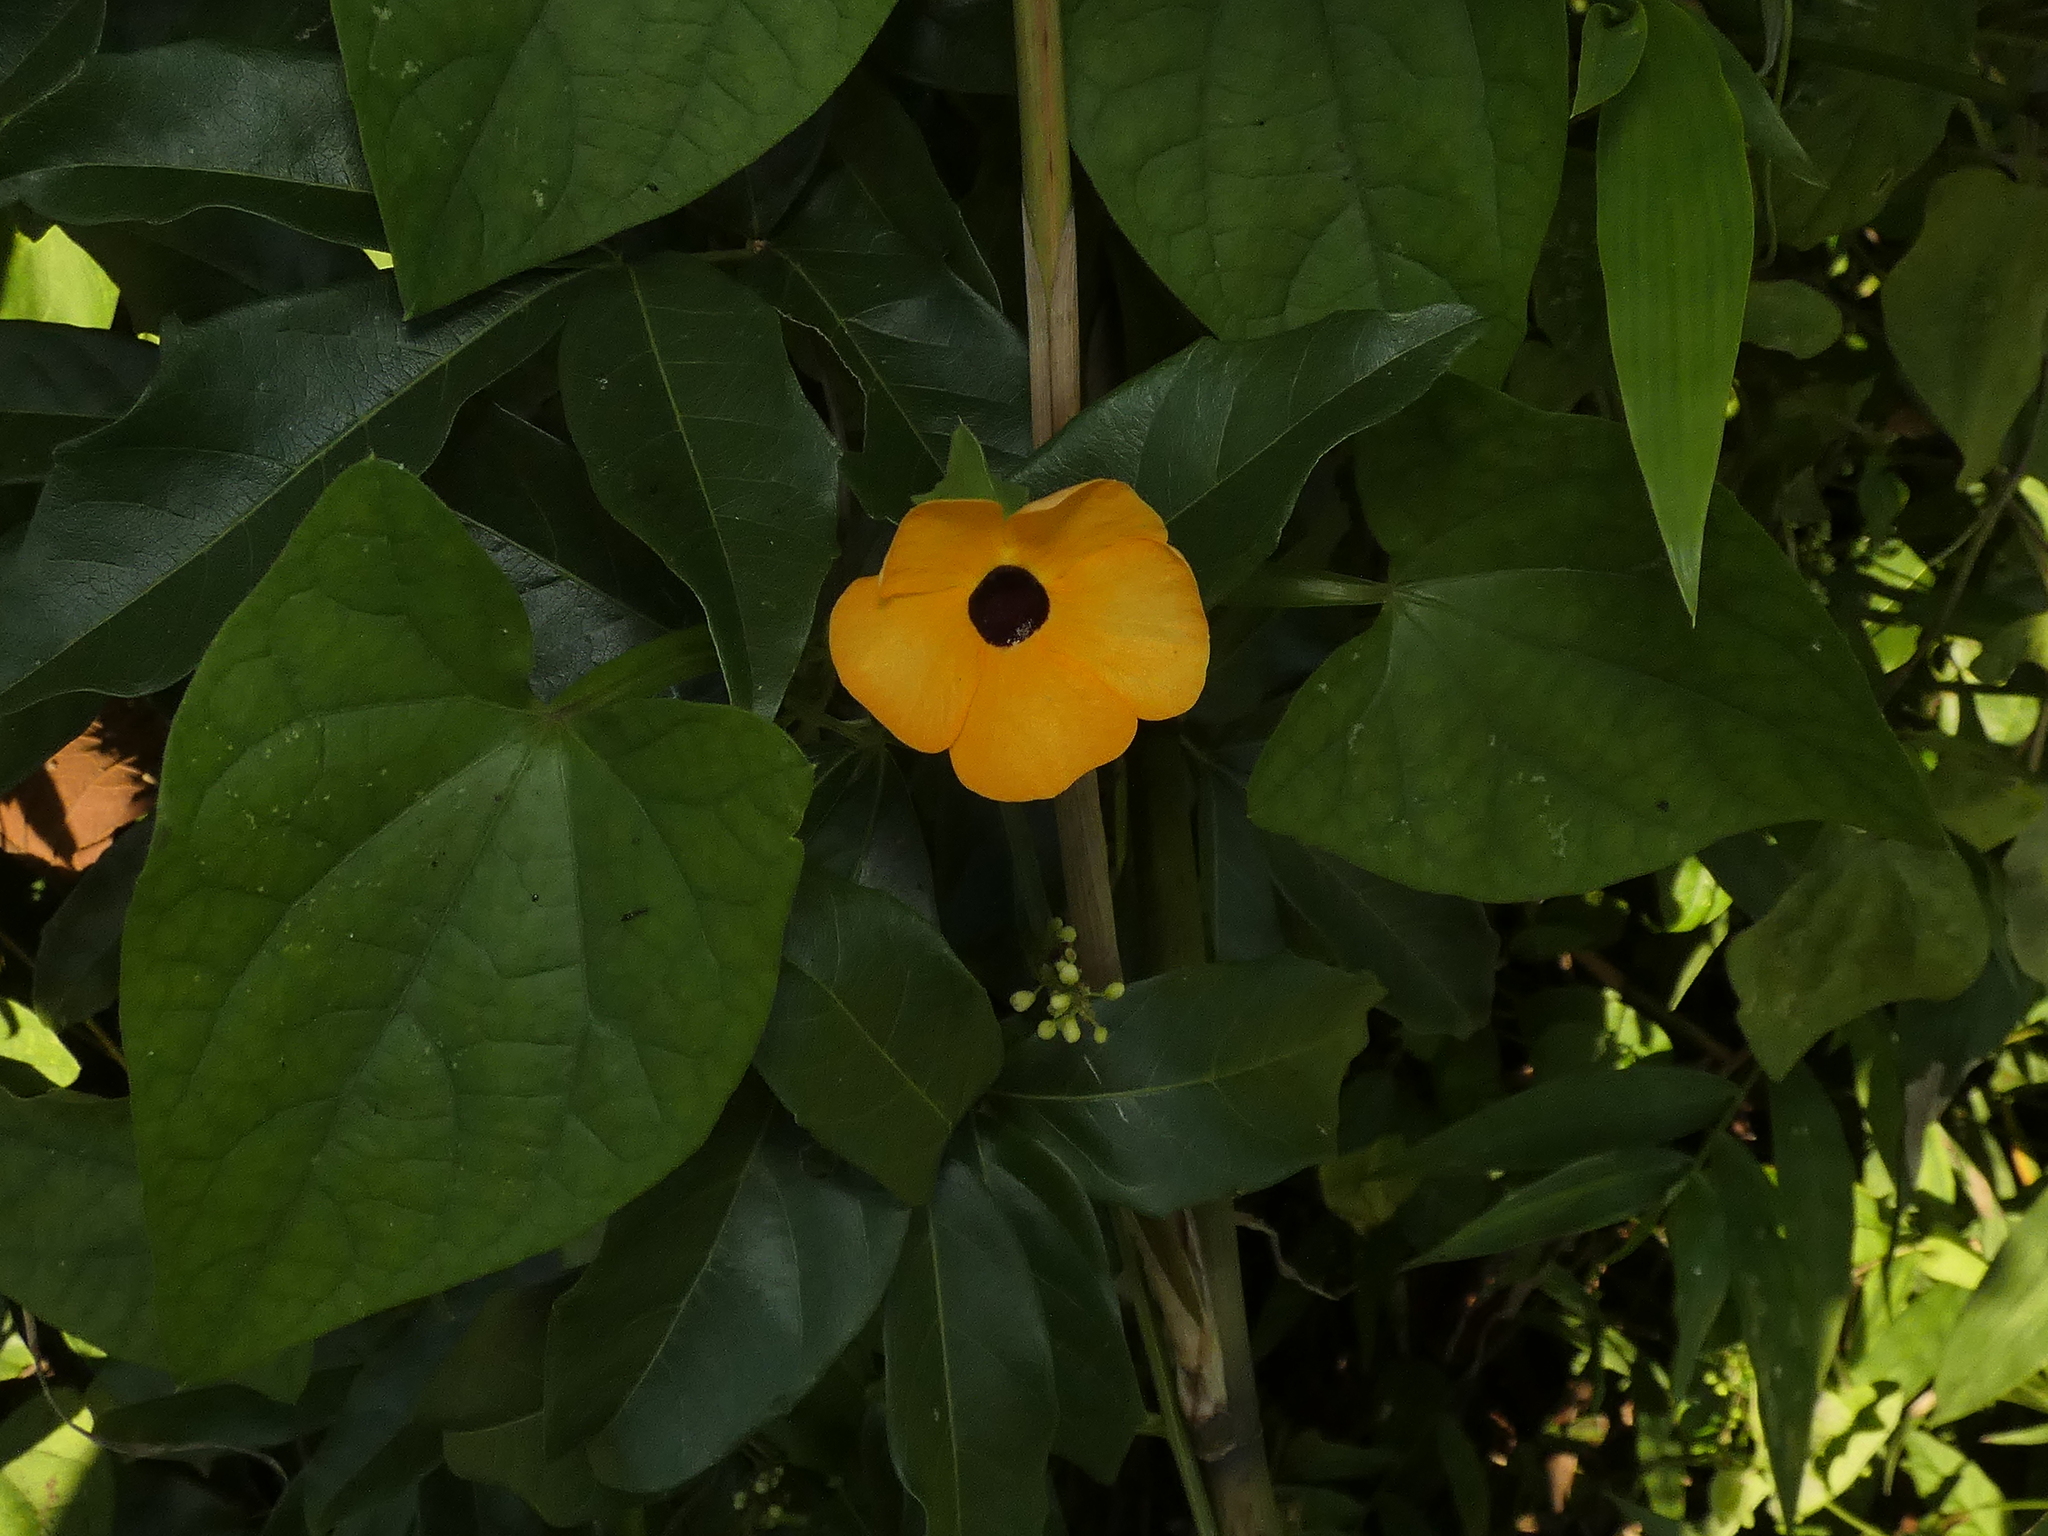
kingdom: Plantae
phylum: Tracheophyta
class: Magnoliopsida
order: Lamiales
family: Acanthaceae
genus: Thunbergia
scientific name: Thunbergia alata
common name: Blackeyed susan vine
